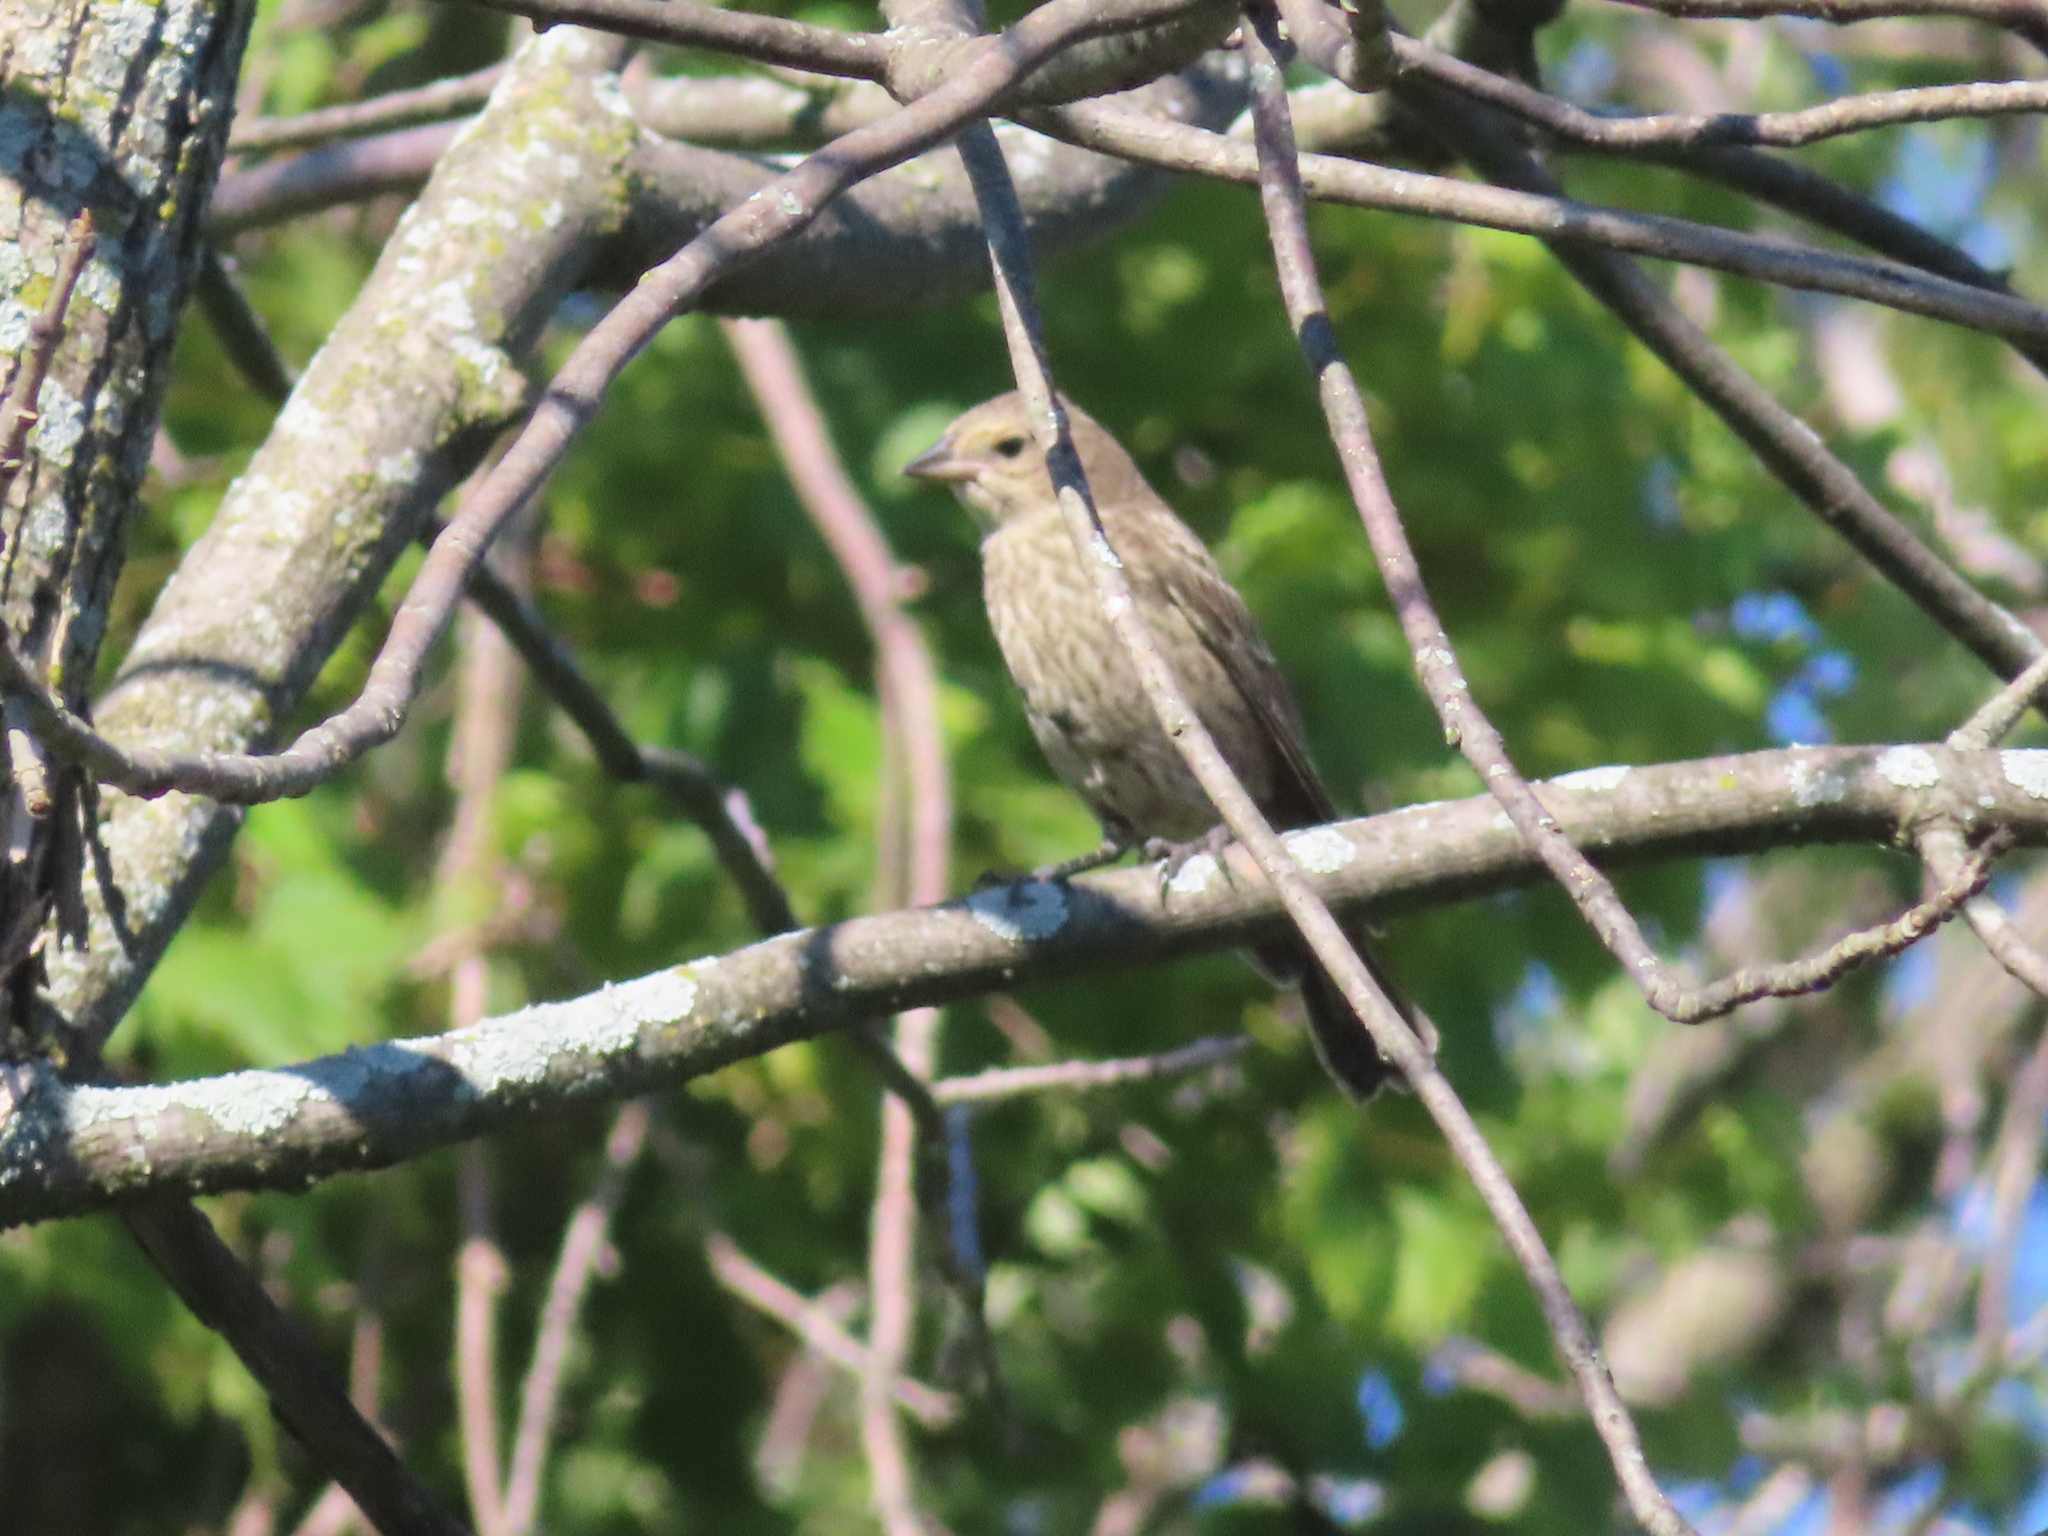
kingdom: Animalia
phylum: Chordata
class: Aves
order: Passeriformes
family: Icteridae
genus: Molothrus
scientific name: Molothrus ater
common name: Brown-headed cowbird
